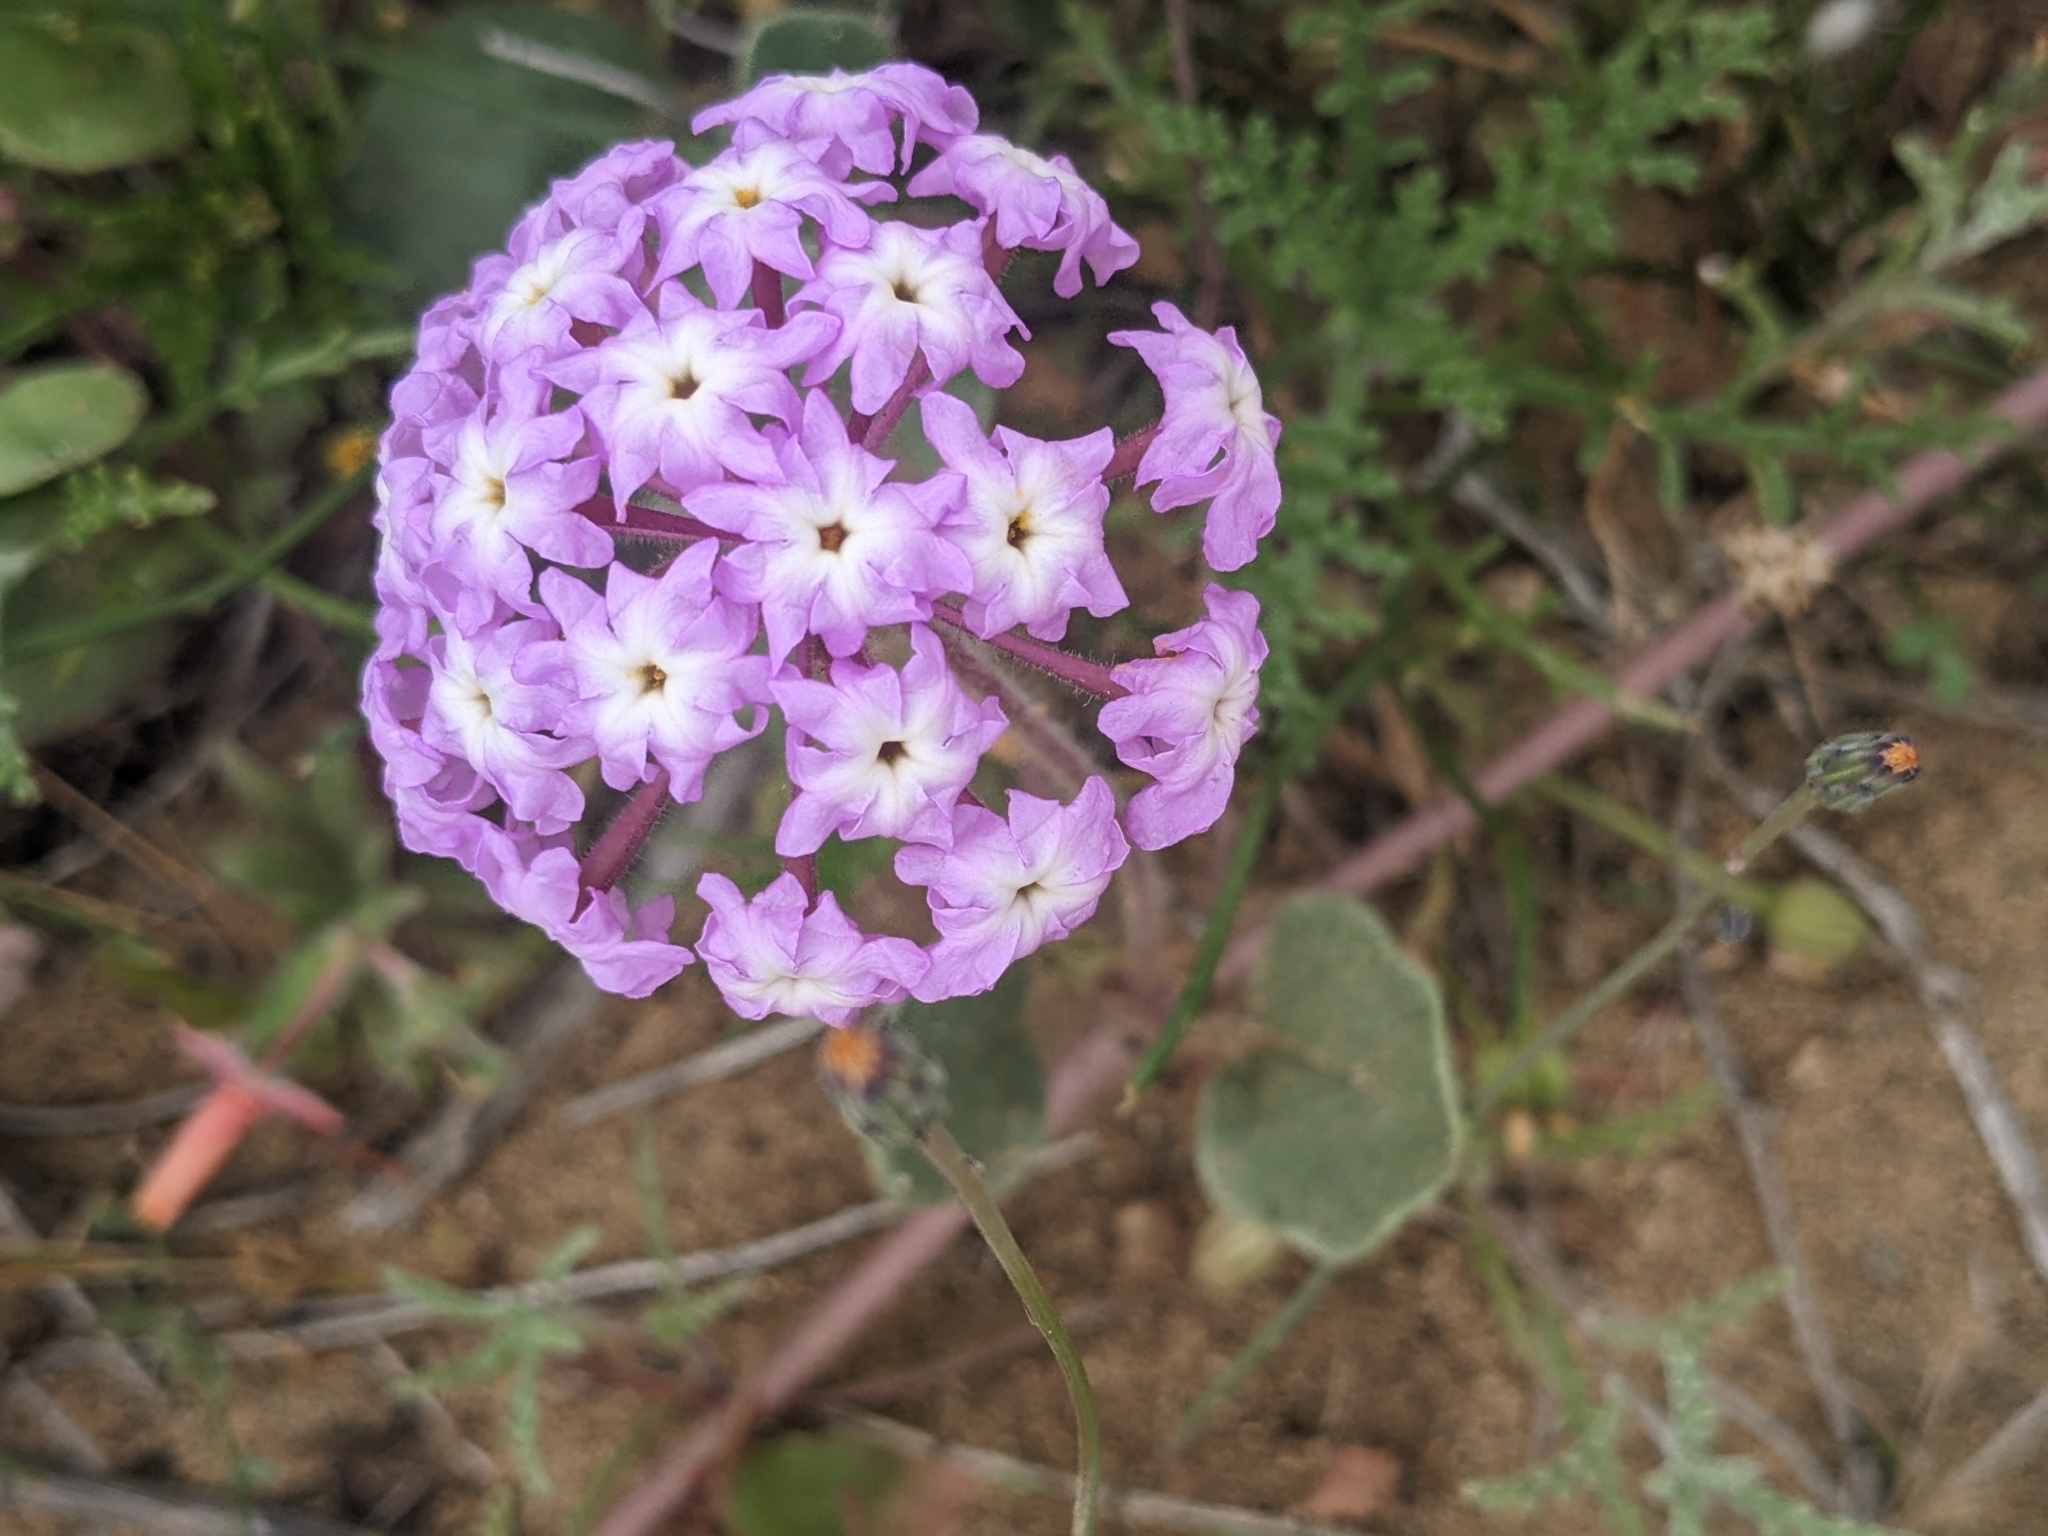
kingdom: Plantae
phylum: Tracheophyta
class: Magnoliopsida
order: Caryophyllales
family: Nyctaginaceae
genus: Abronia
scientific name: Abronia umbellata
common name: Sand-verbena
